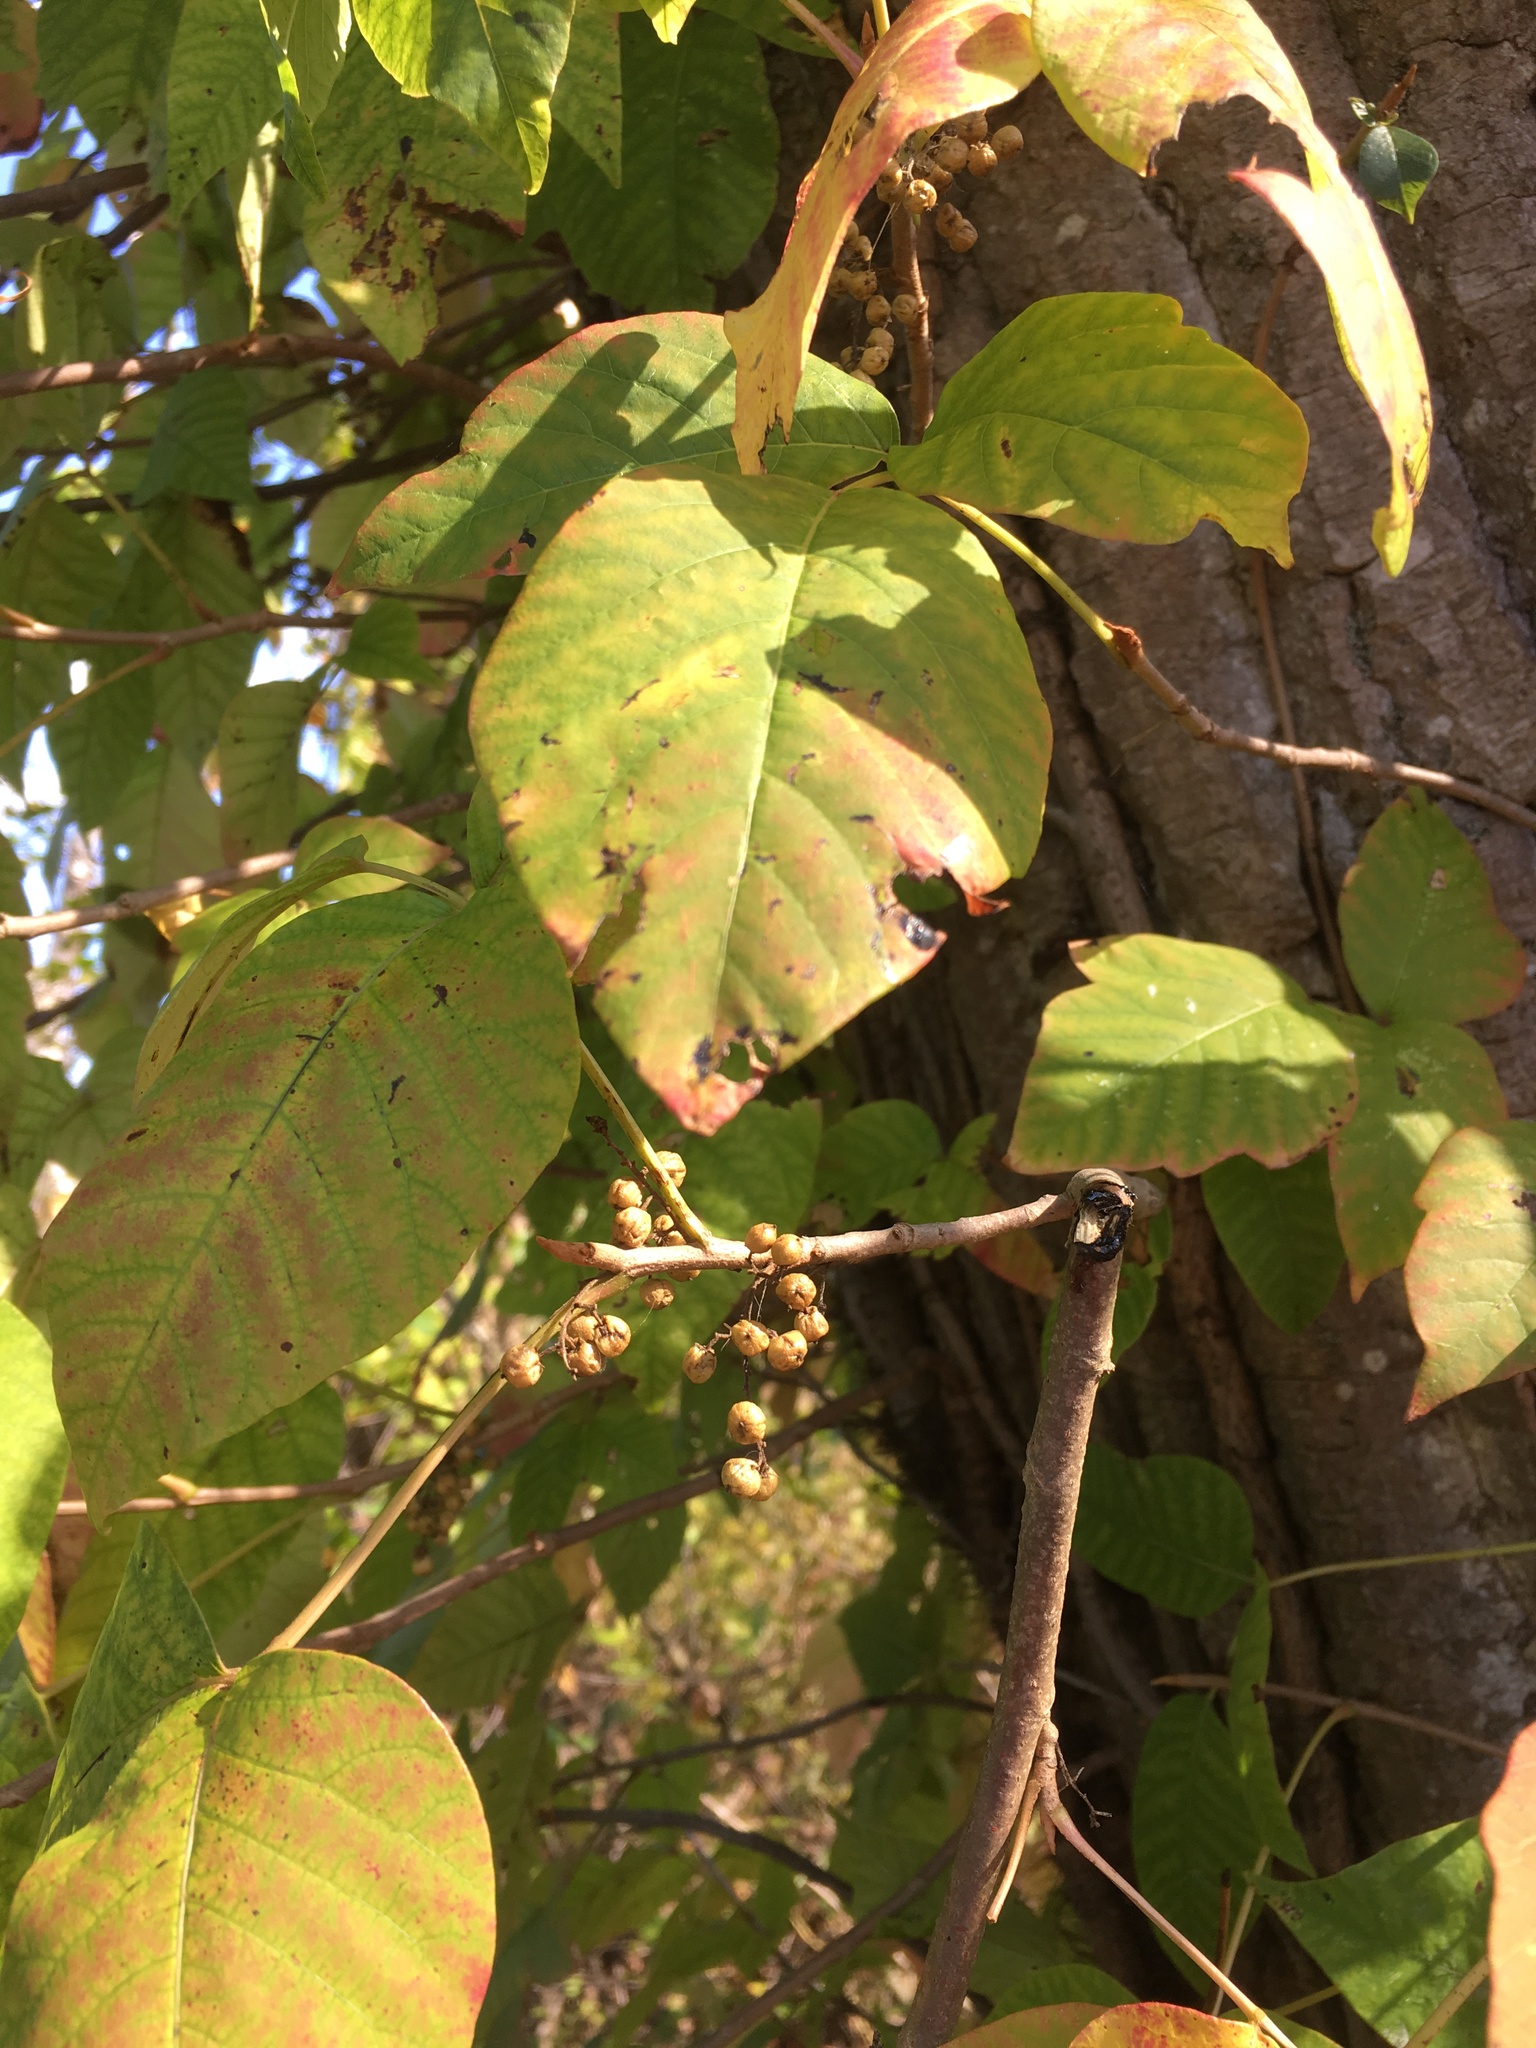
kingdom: Plantae
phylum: Tracheophyta
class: Magnoliopsida
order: Sapindales
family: Anacardiaceae
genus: Toxicodendron
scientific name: Toxicodendron radicans
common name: Poison ivy
